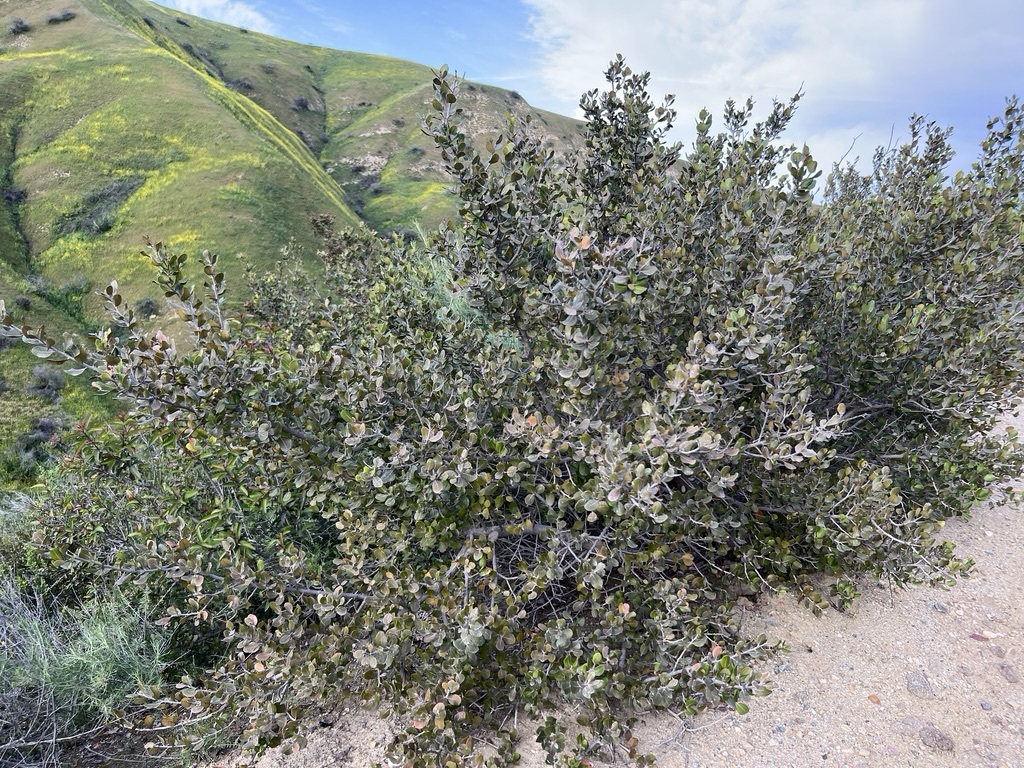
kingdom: Plantae
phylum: Tracheophyta
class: Magnoliopsida
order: Sapindales
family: Anacardiaceae
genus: Rhus
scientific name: Rhus integrifolia
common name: Lemonade sumac
